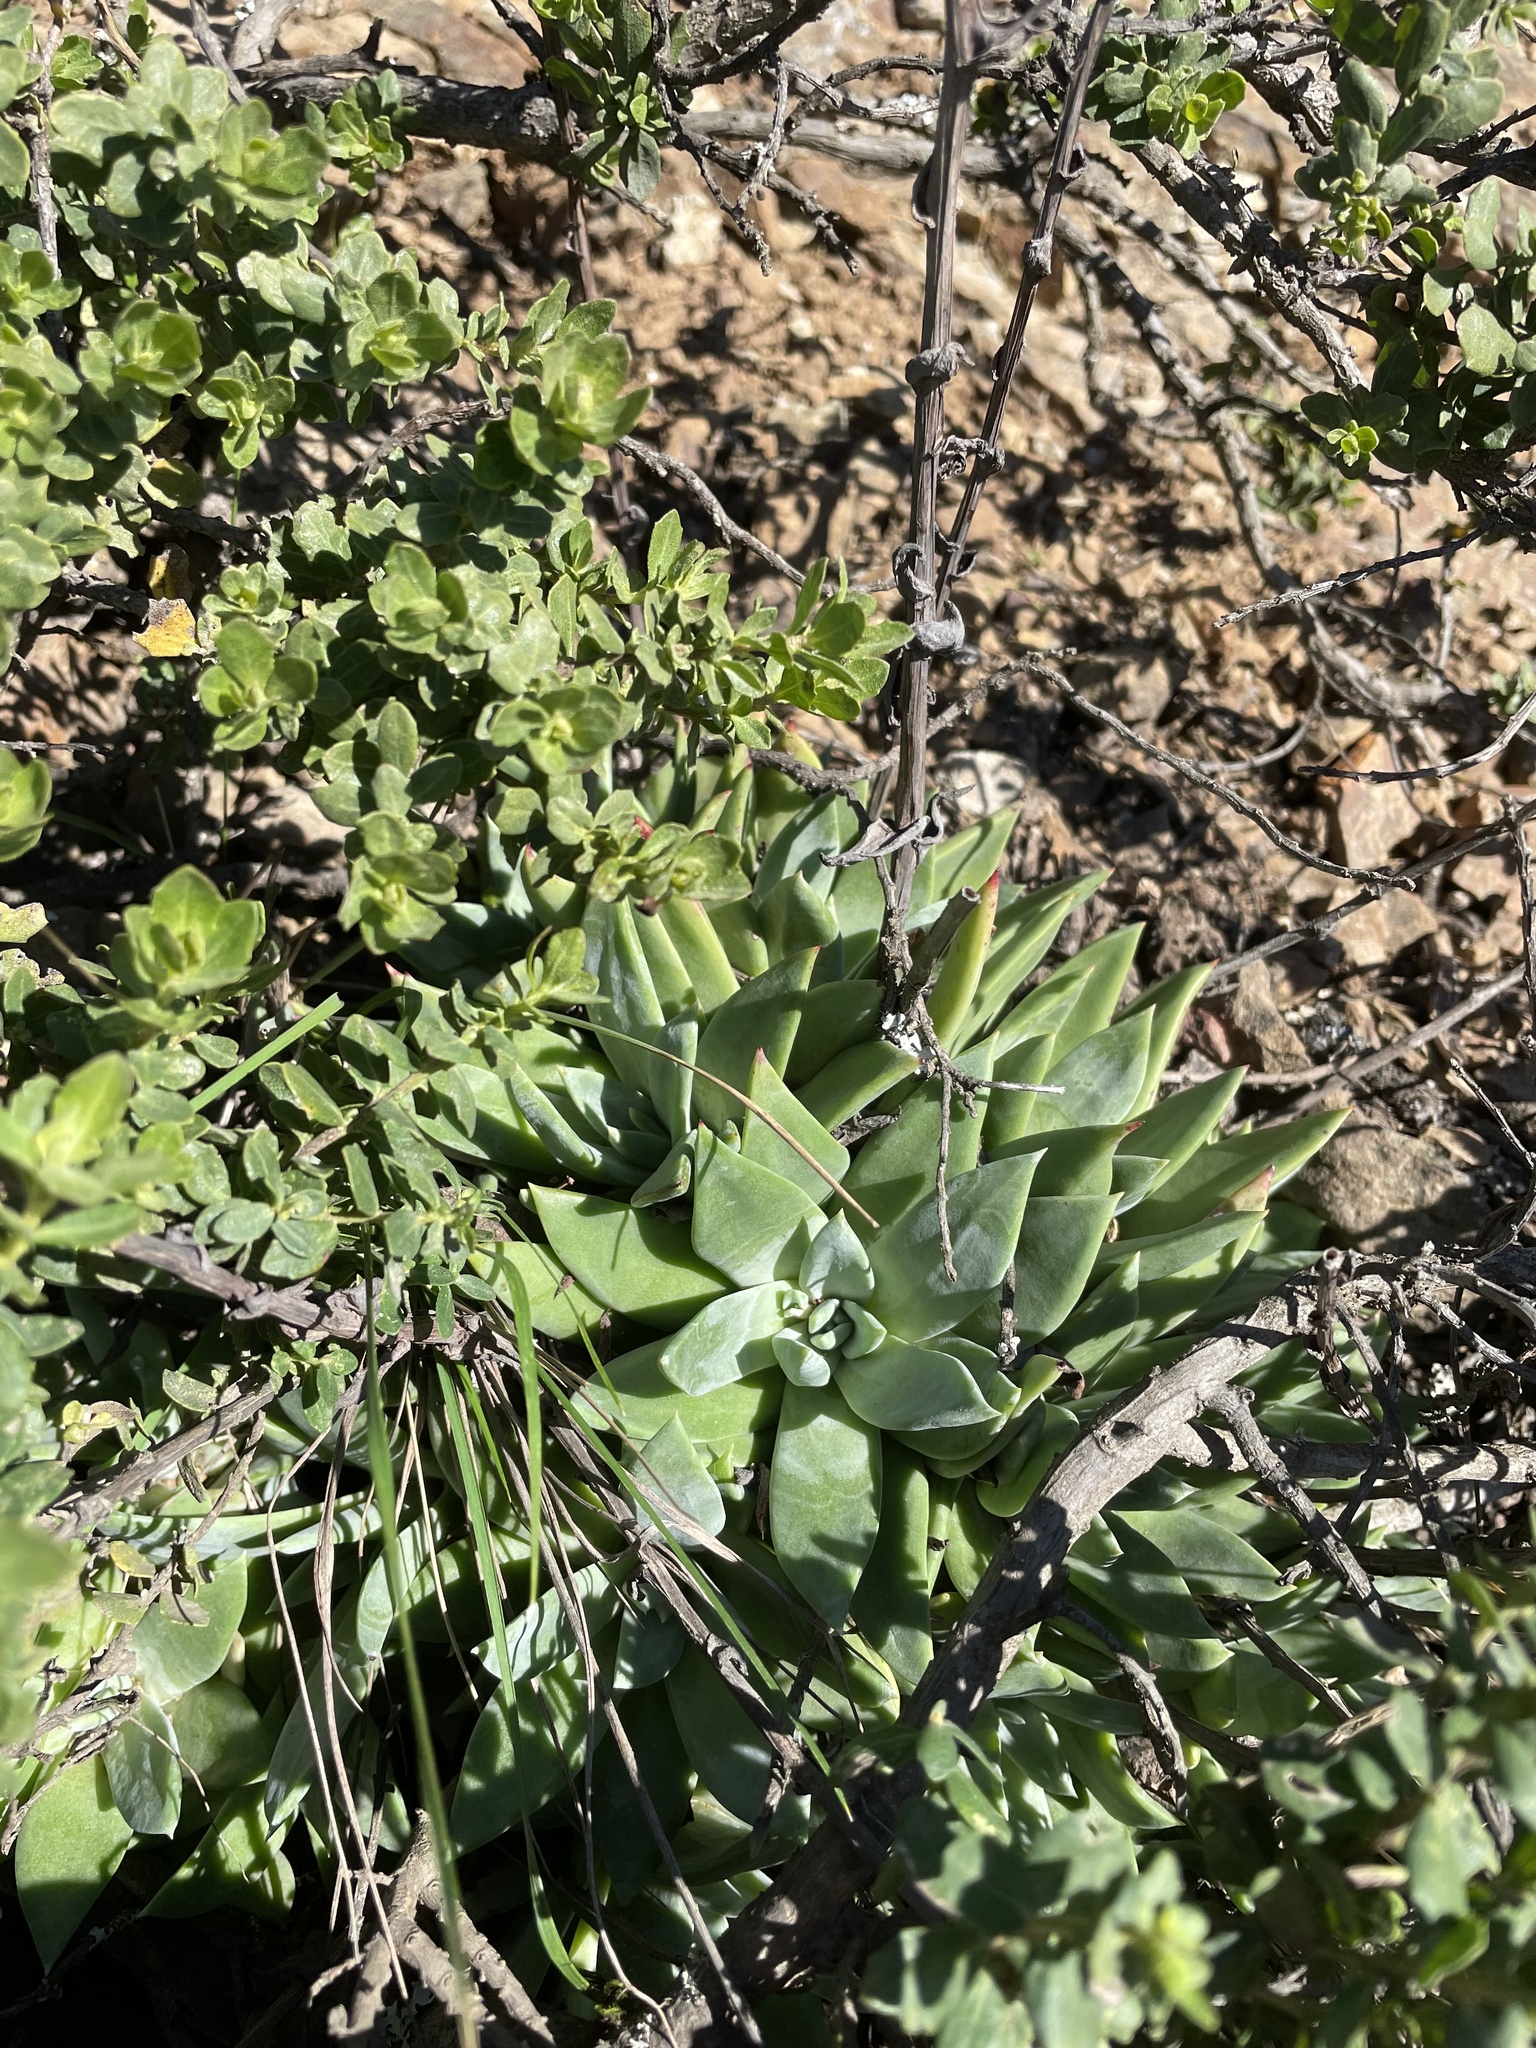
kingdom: Plantae
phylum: Tracheophyta
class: Magnoliopsida
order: Saxifragales
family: Crassulaceae
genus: Dudleya
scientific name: Dudleya farinosa
